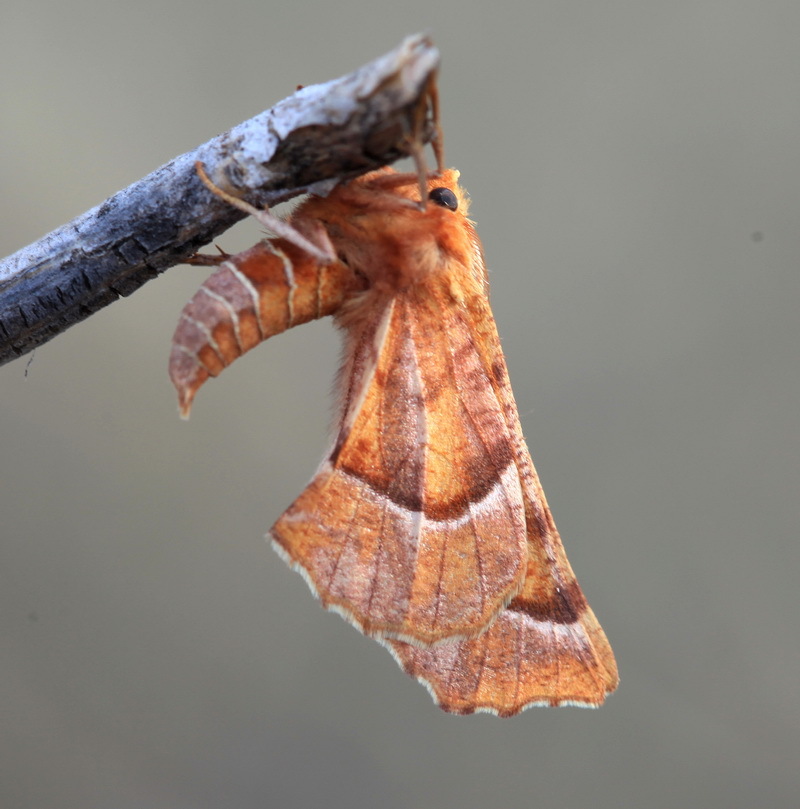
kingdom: Animalia
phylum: Arthropoda
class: Insecta
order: Lepidoptera
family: Geometridae
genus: Selenia
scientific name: Selenia ononica
